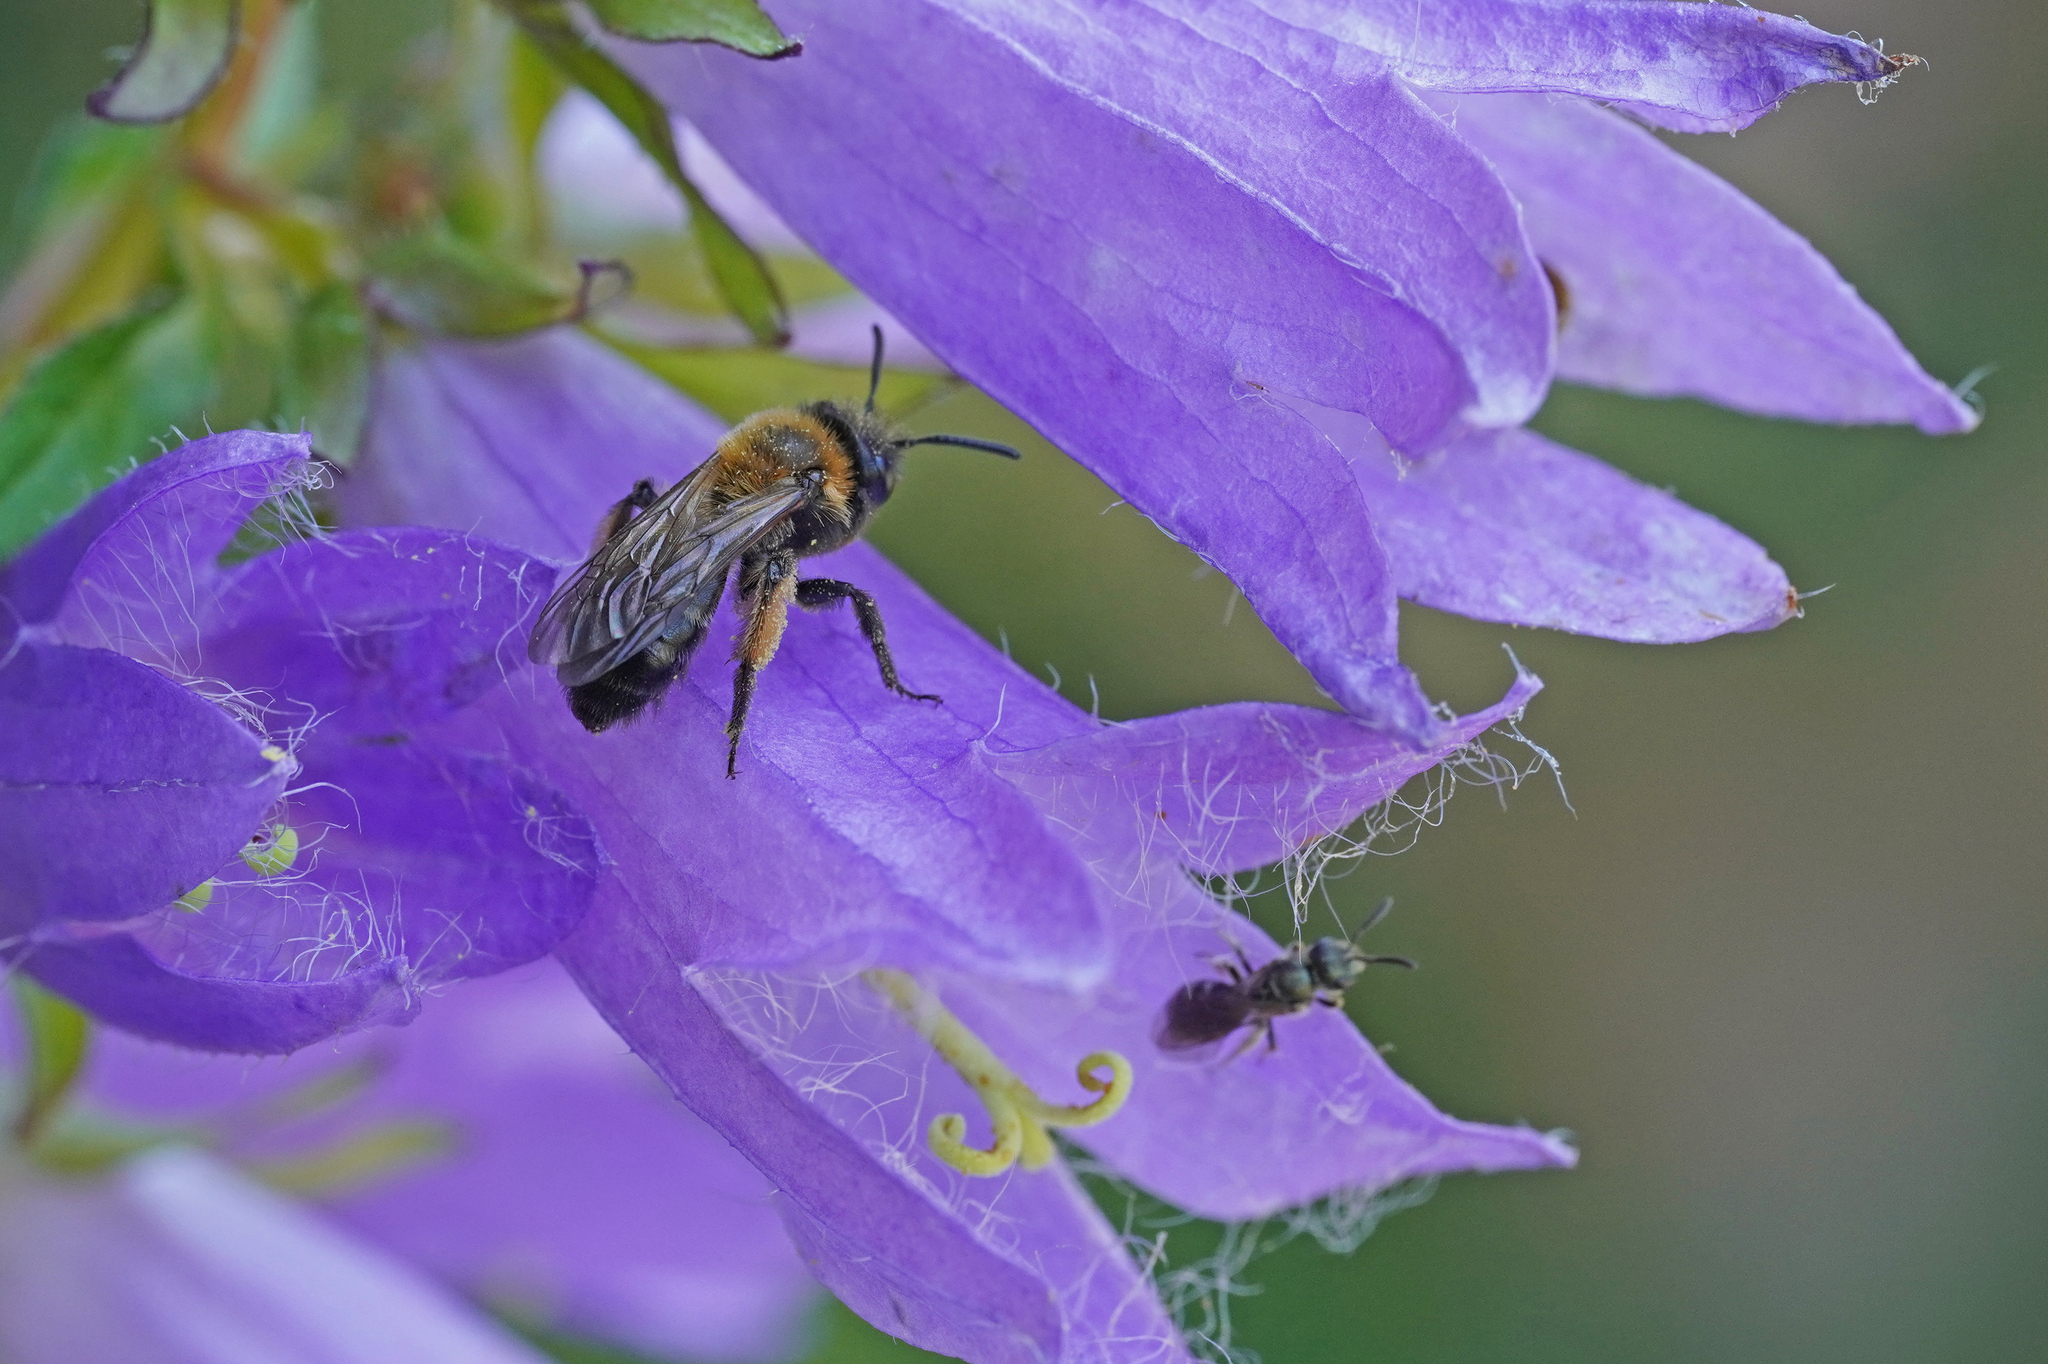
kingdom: Animalia
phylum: Arthropoda
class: Insecta
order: Hymenoptera
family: Andrenidae
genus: Andrena
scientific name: Andrena bicolor
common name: Gwynne's mining bee
